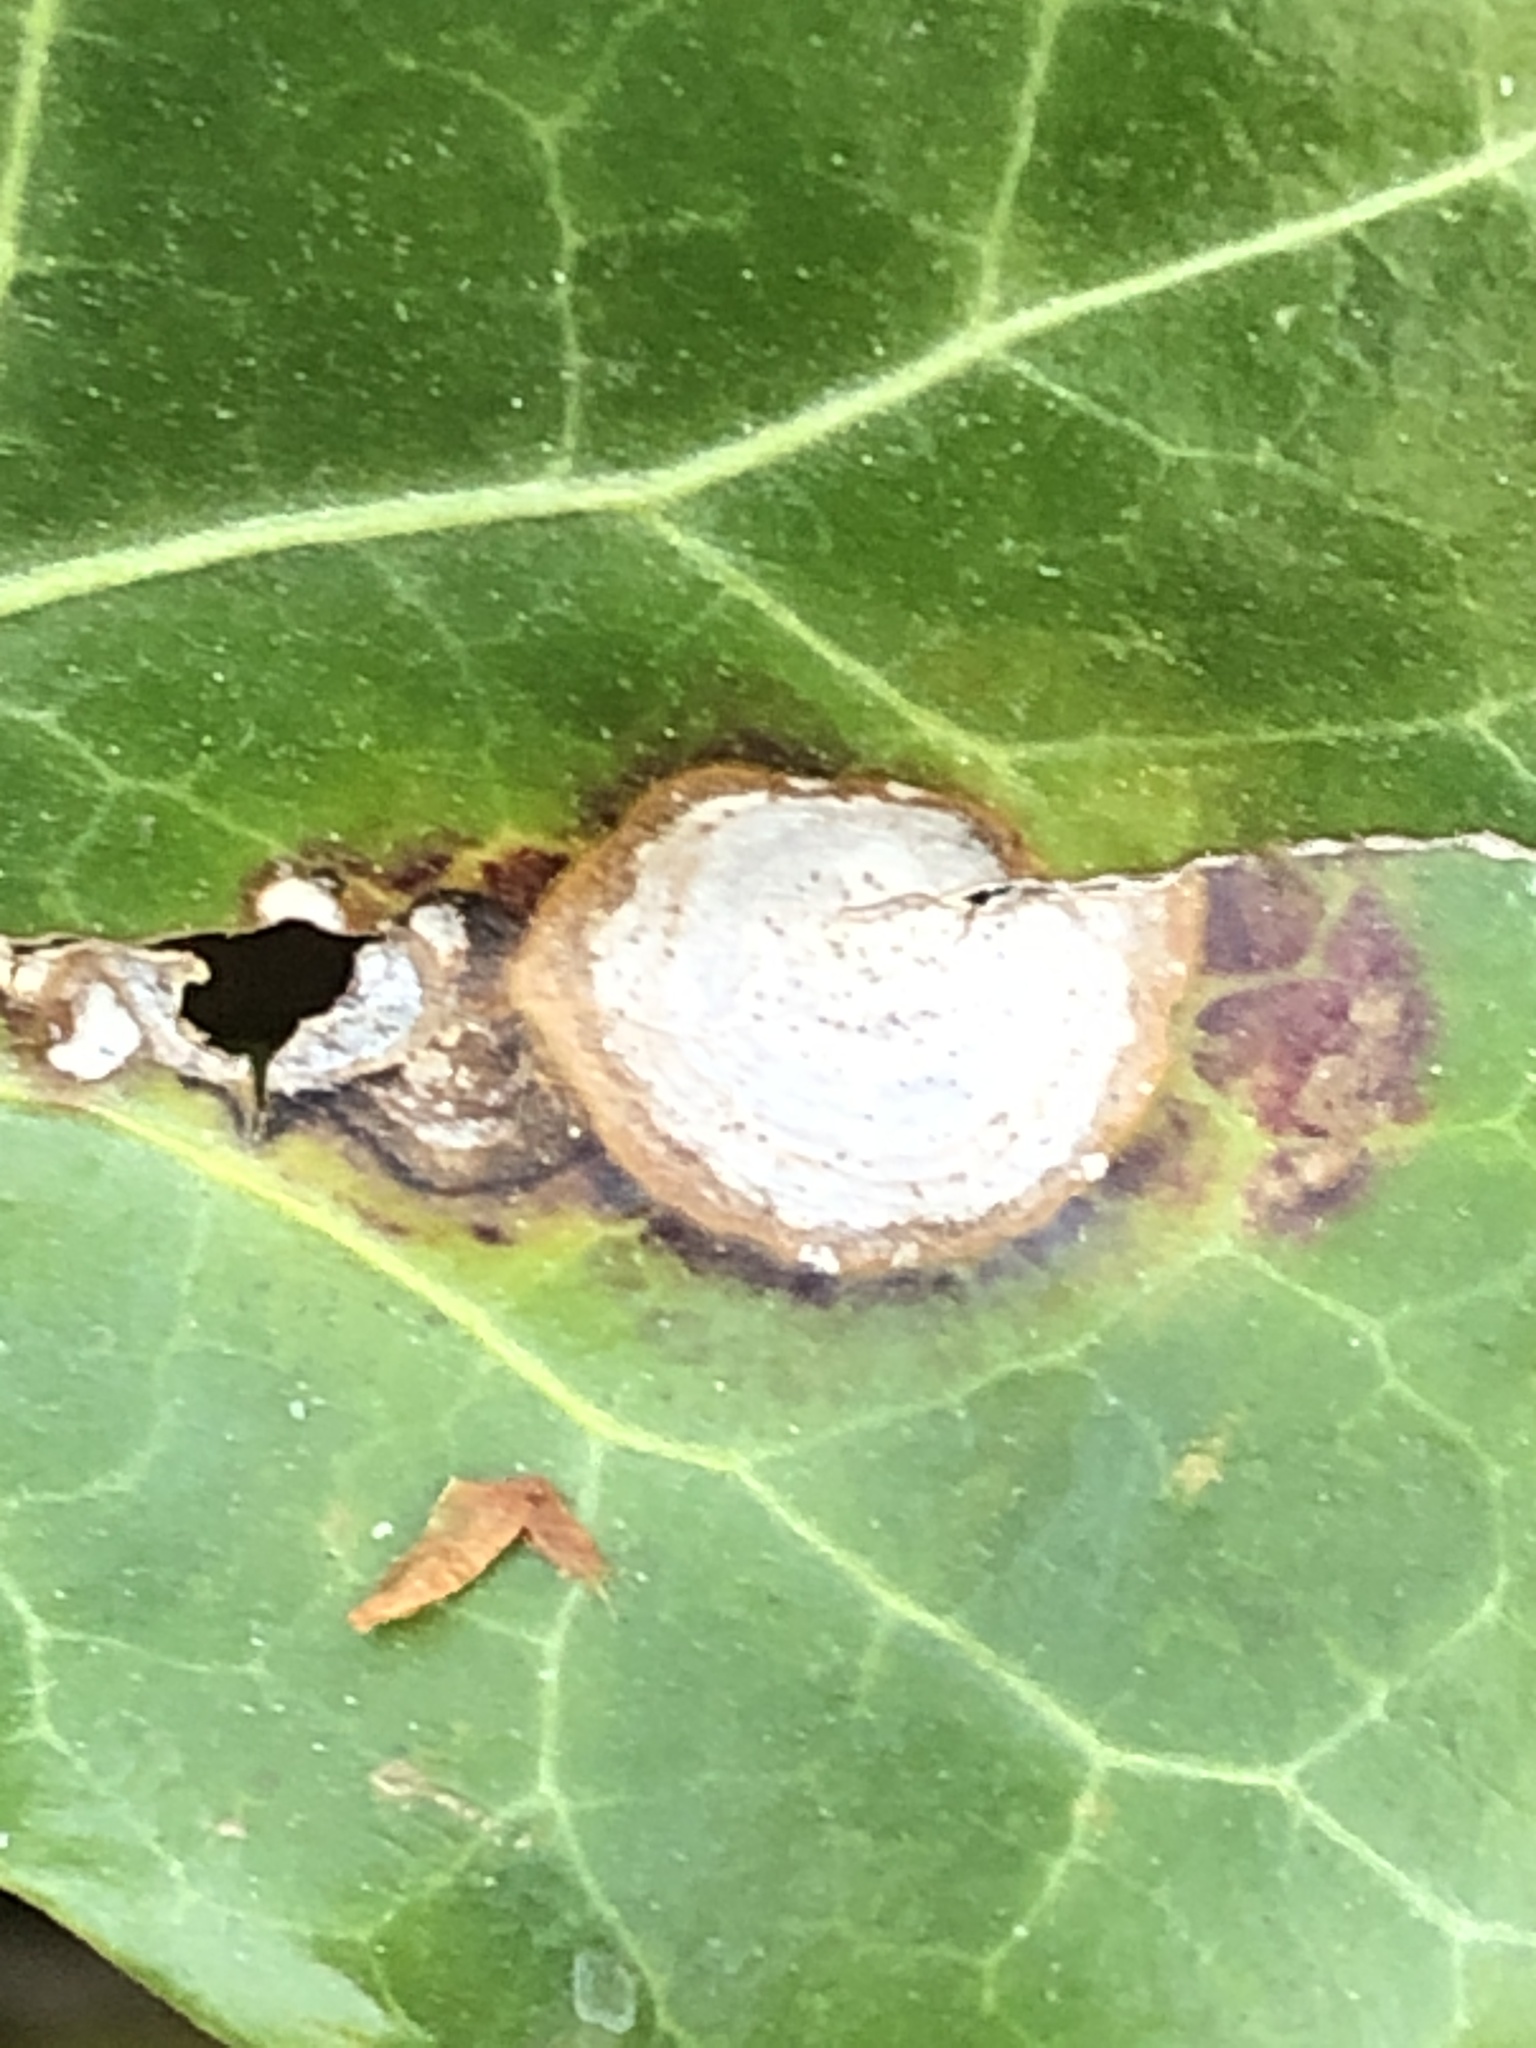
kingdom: Fungi
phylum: Ascomycota
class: Dothideomycetes
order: Pleosporales
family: Didymellaceae
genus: Boeremia
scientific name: Boeremia hedericola
